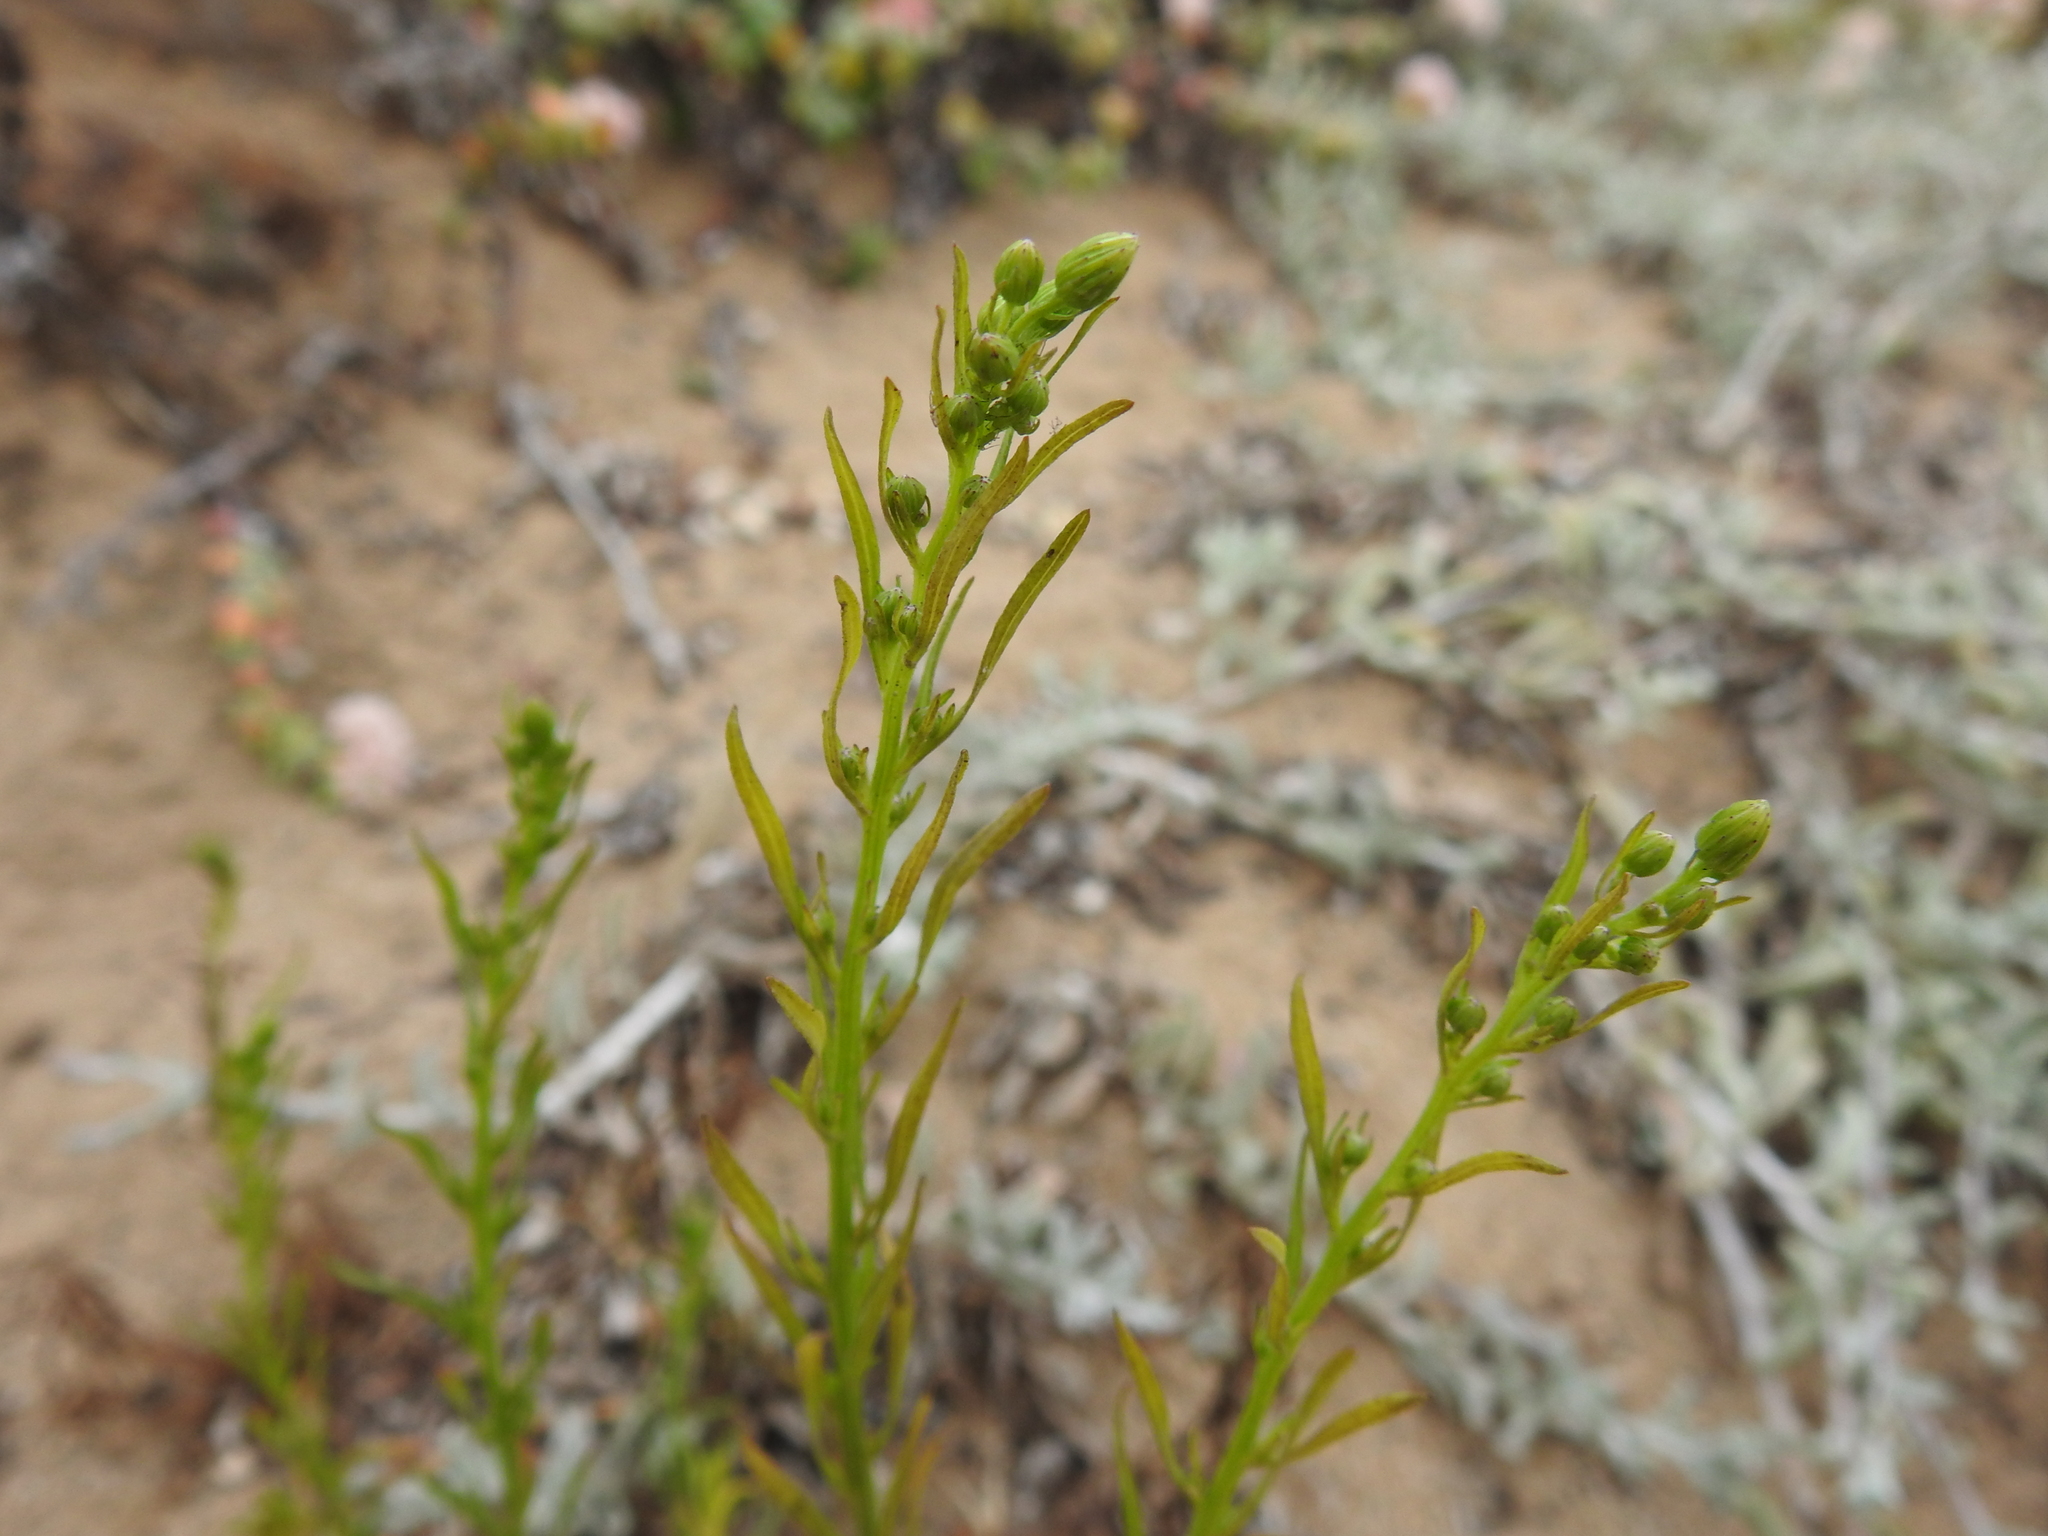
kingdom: Plantae
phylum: Tracheophyta
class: Magnoliopsida
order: Asterales
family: Asteraceae
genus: Erigeron
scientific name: Erigeron canadensis
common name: Canadian fleabane
